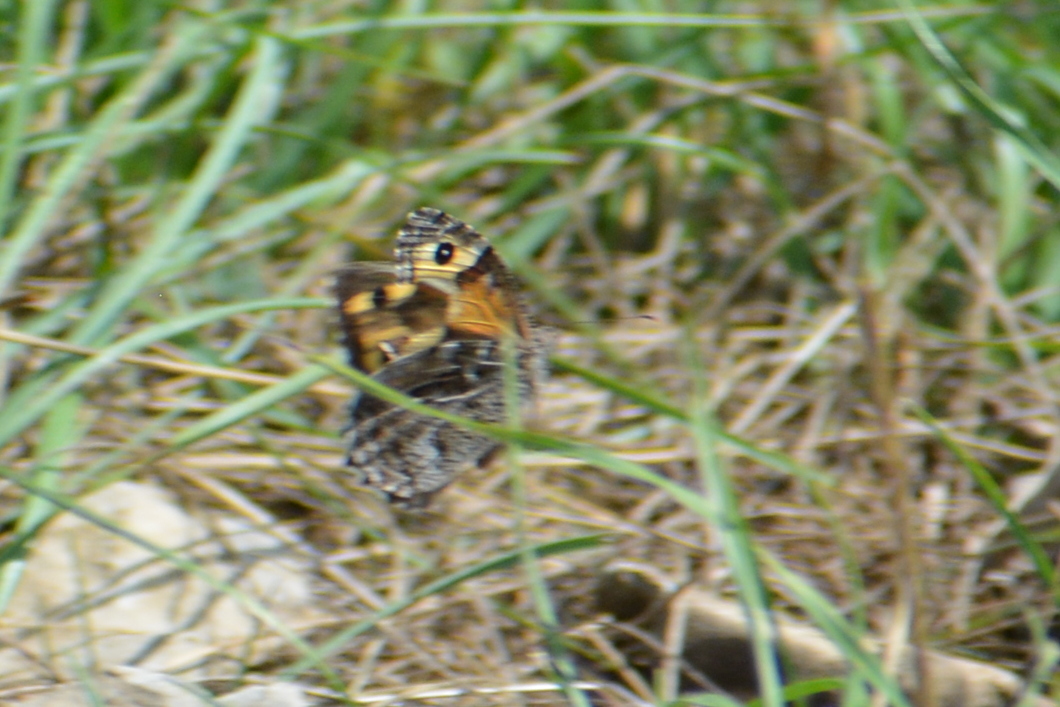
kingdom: Animalia
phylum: Arthropoda
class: Insecta
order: Lepidoptera
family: Nymphalidae
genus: Hipparchia
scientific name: Hipparchia semele
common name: Grayling
